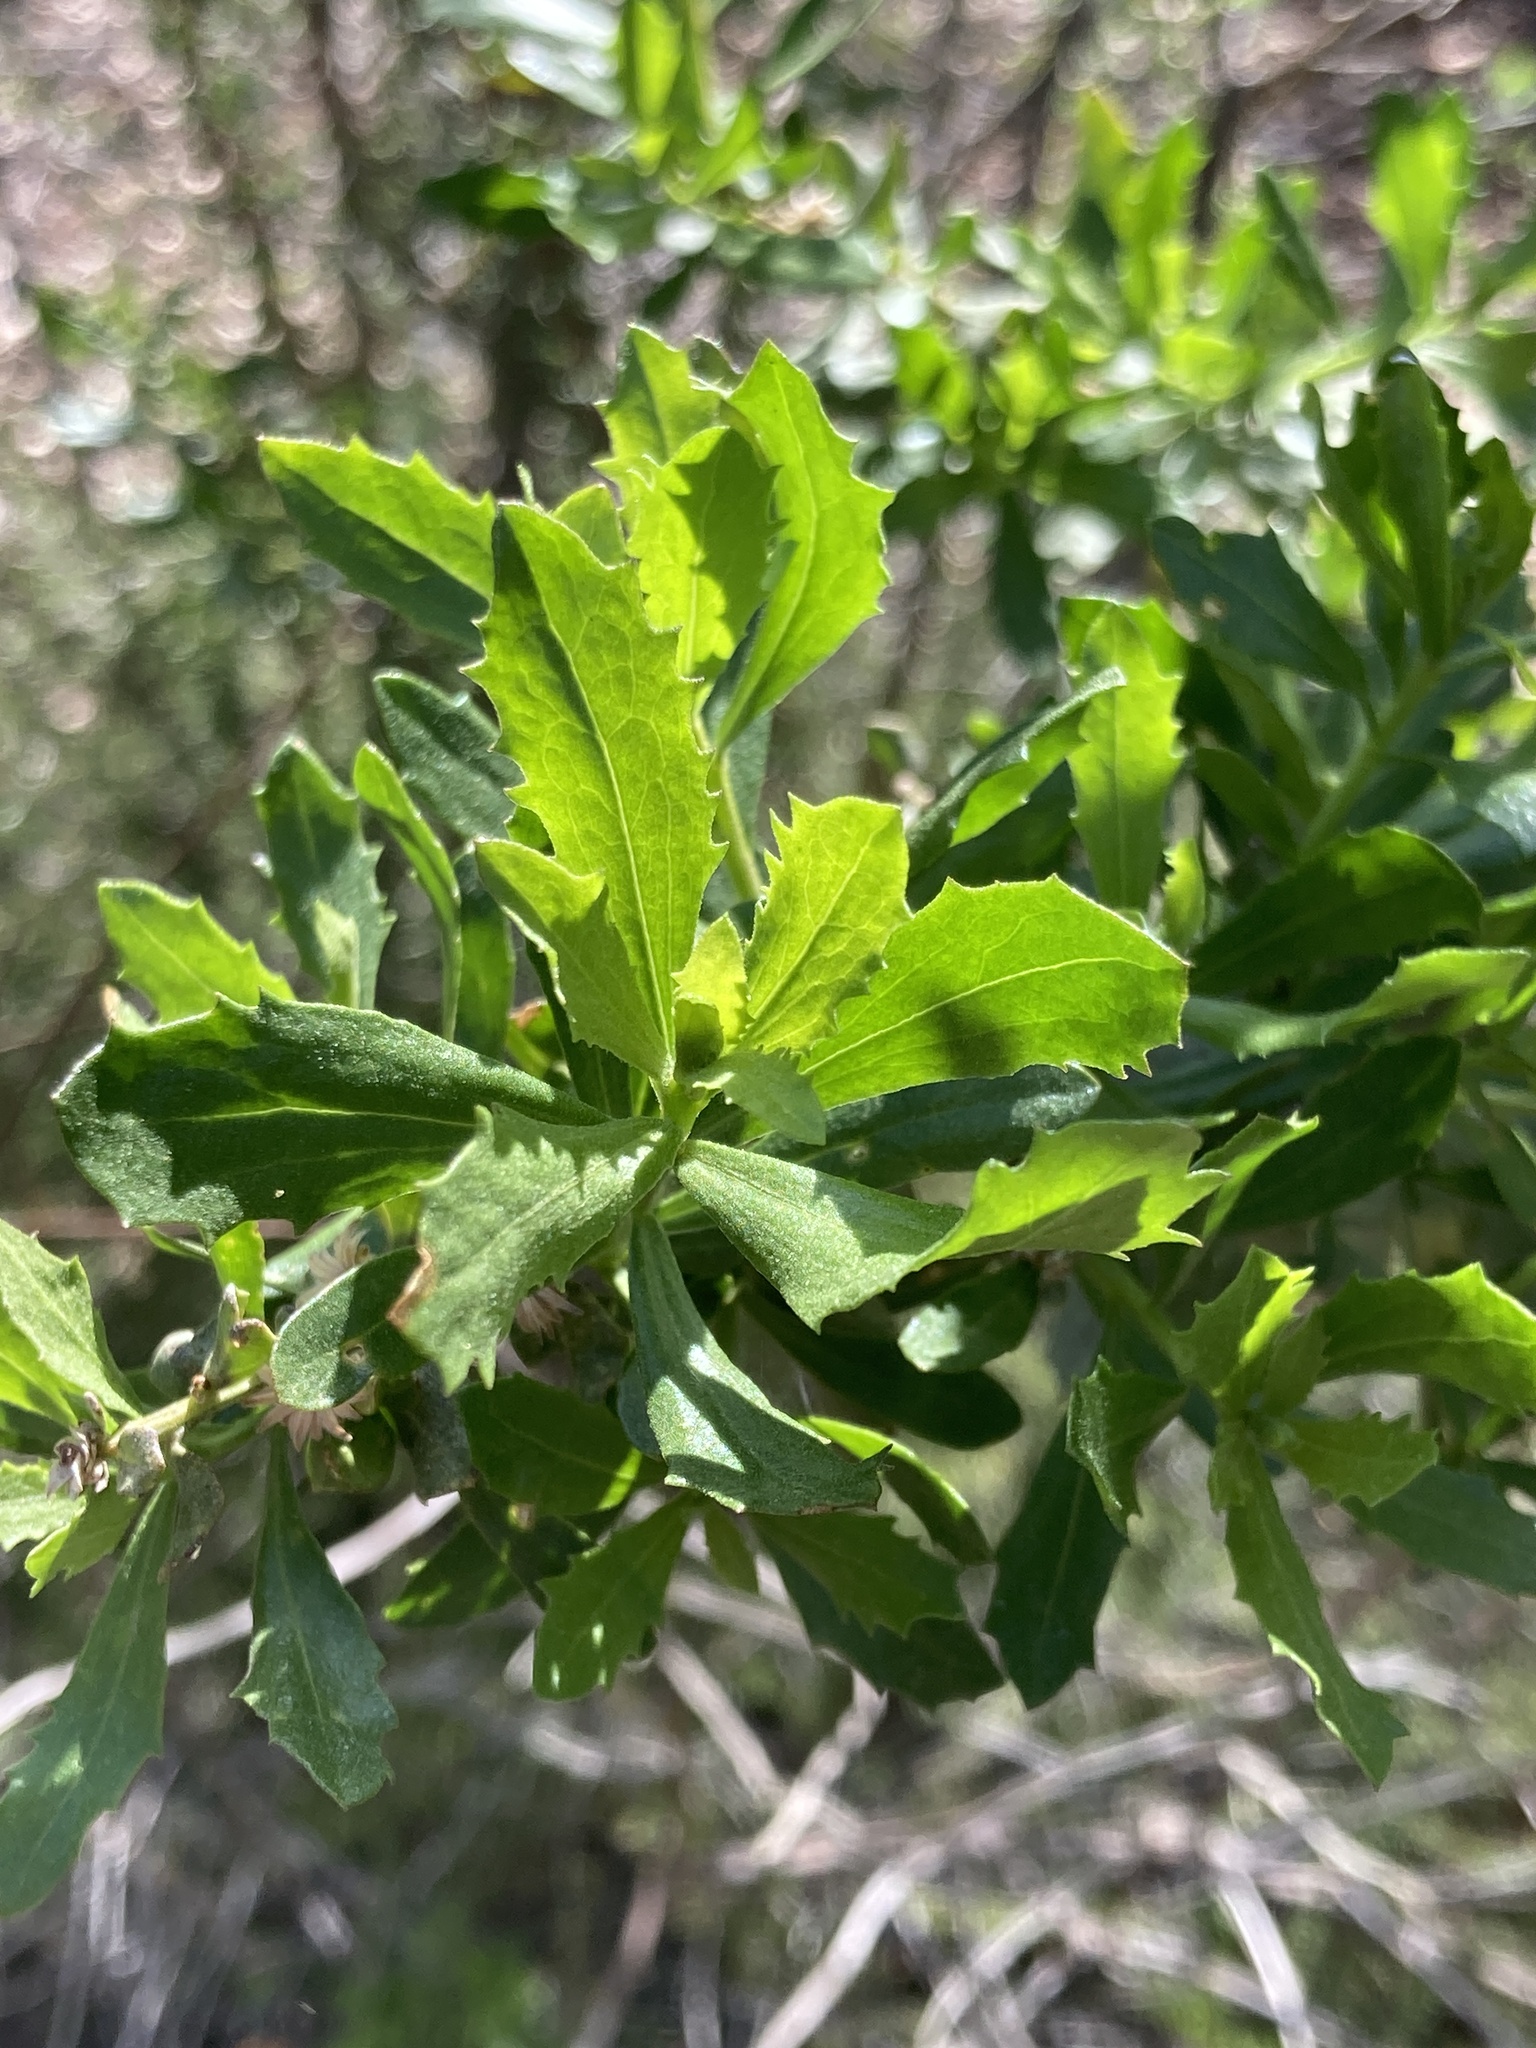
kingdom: Plantae
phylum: Tracheophyta
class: Magnoliopsida
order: Asterales
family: Asteraceae
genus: Baccharis
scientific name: Baccharis pilularis
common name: Coyotebrush
